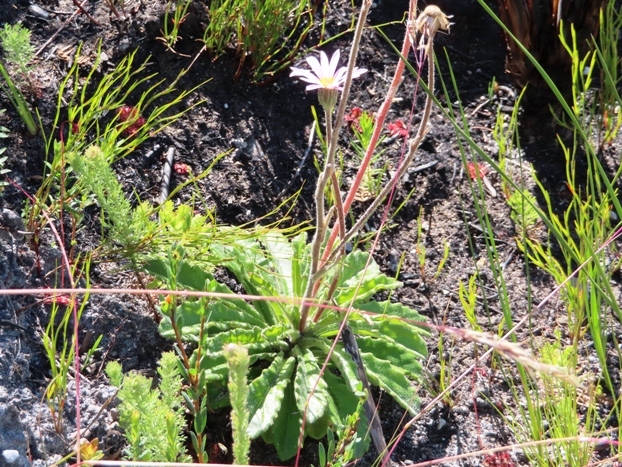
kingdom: Plantae
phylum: Tracheophyta
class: Magnoliopsida
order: Asterales
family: Asteraceae
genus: Mairia
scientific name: Mairia purpurata
